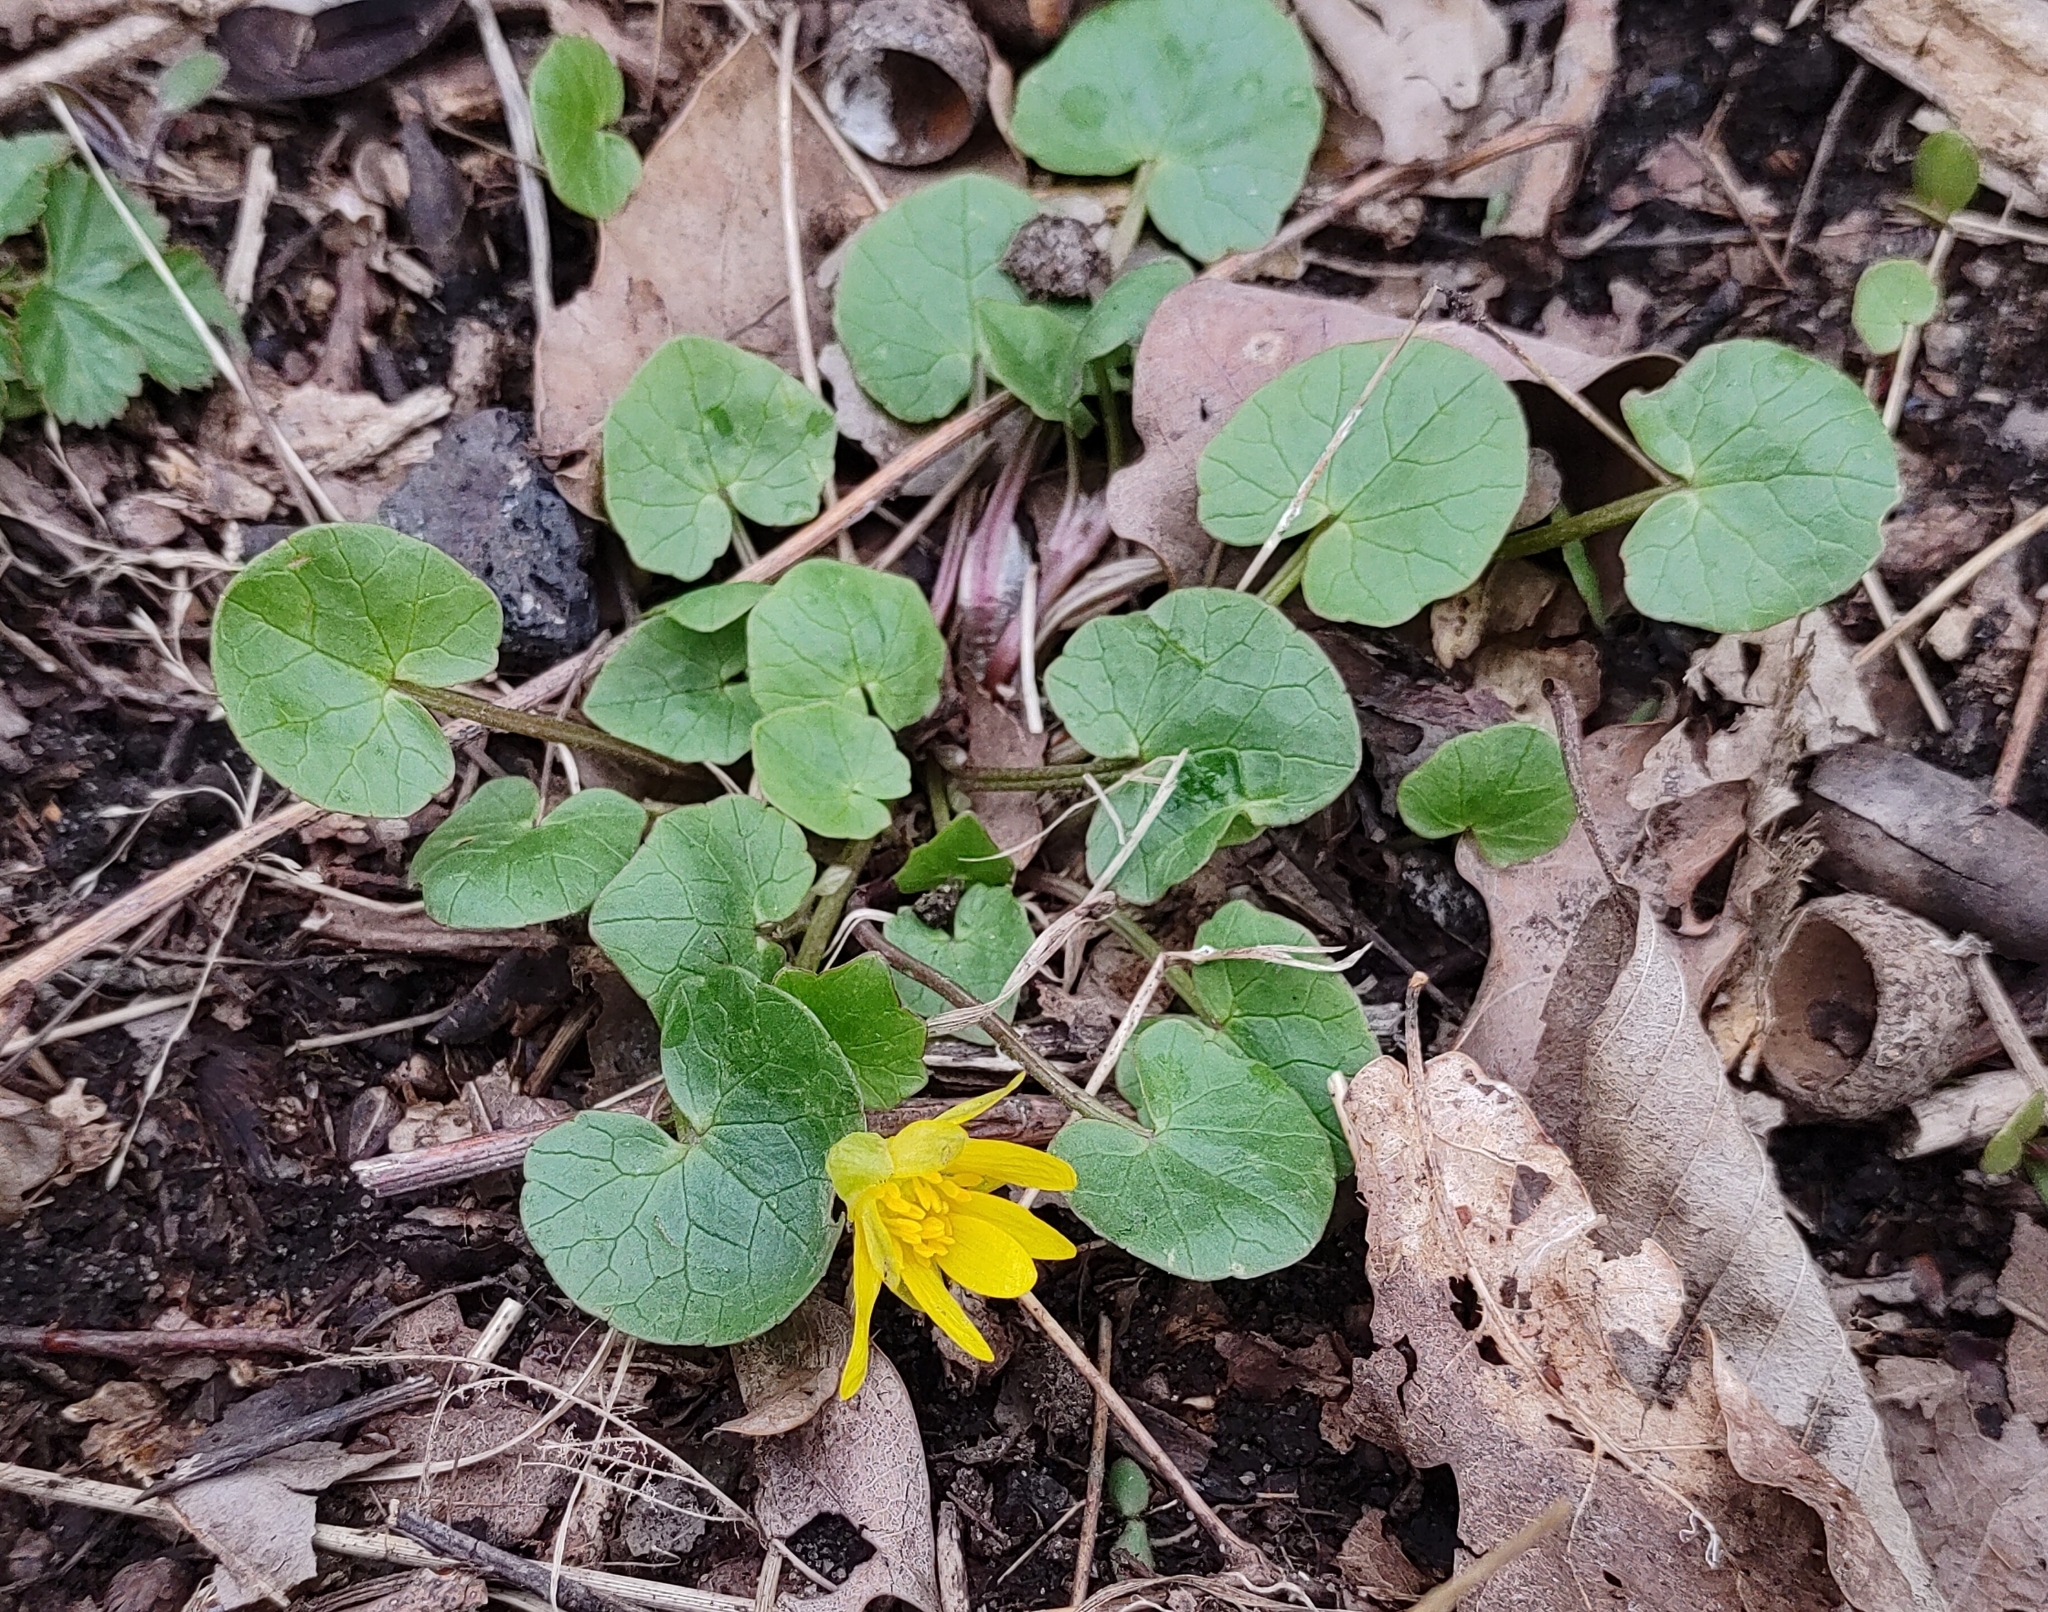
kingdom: Plantae
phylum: Tracheophyta
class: Magnoliopsida
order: Ranunculales
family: Ranunculaceae
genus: Ficaria
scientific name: Ficaria verna
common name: Lesser celandine
